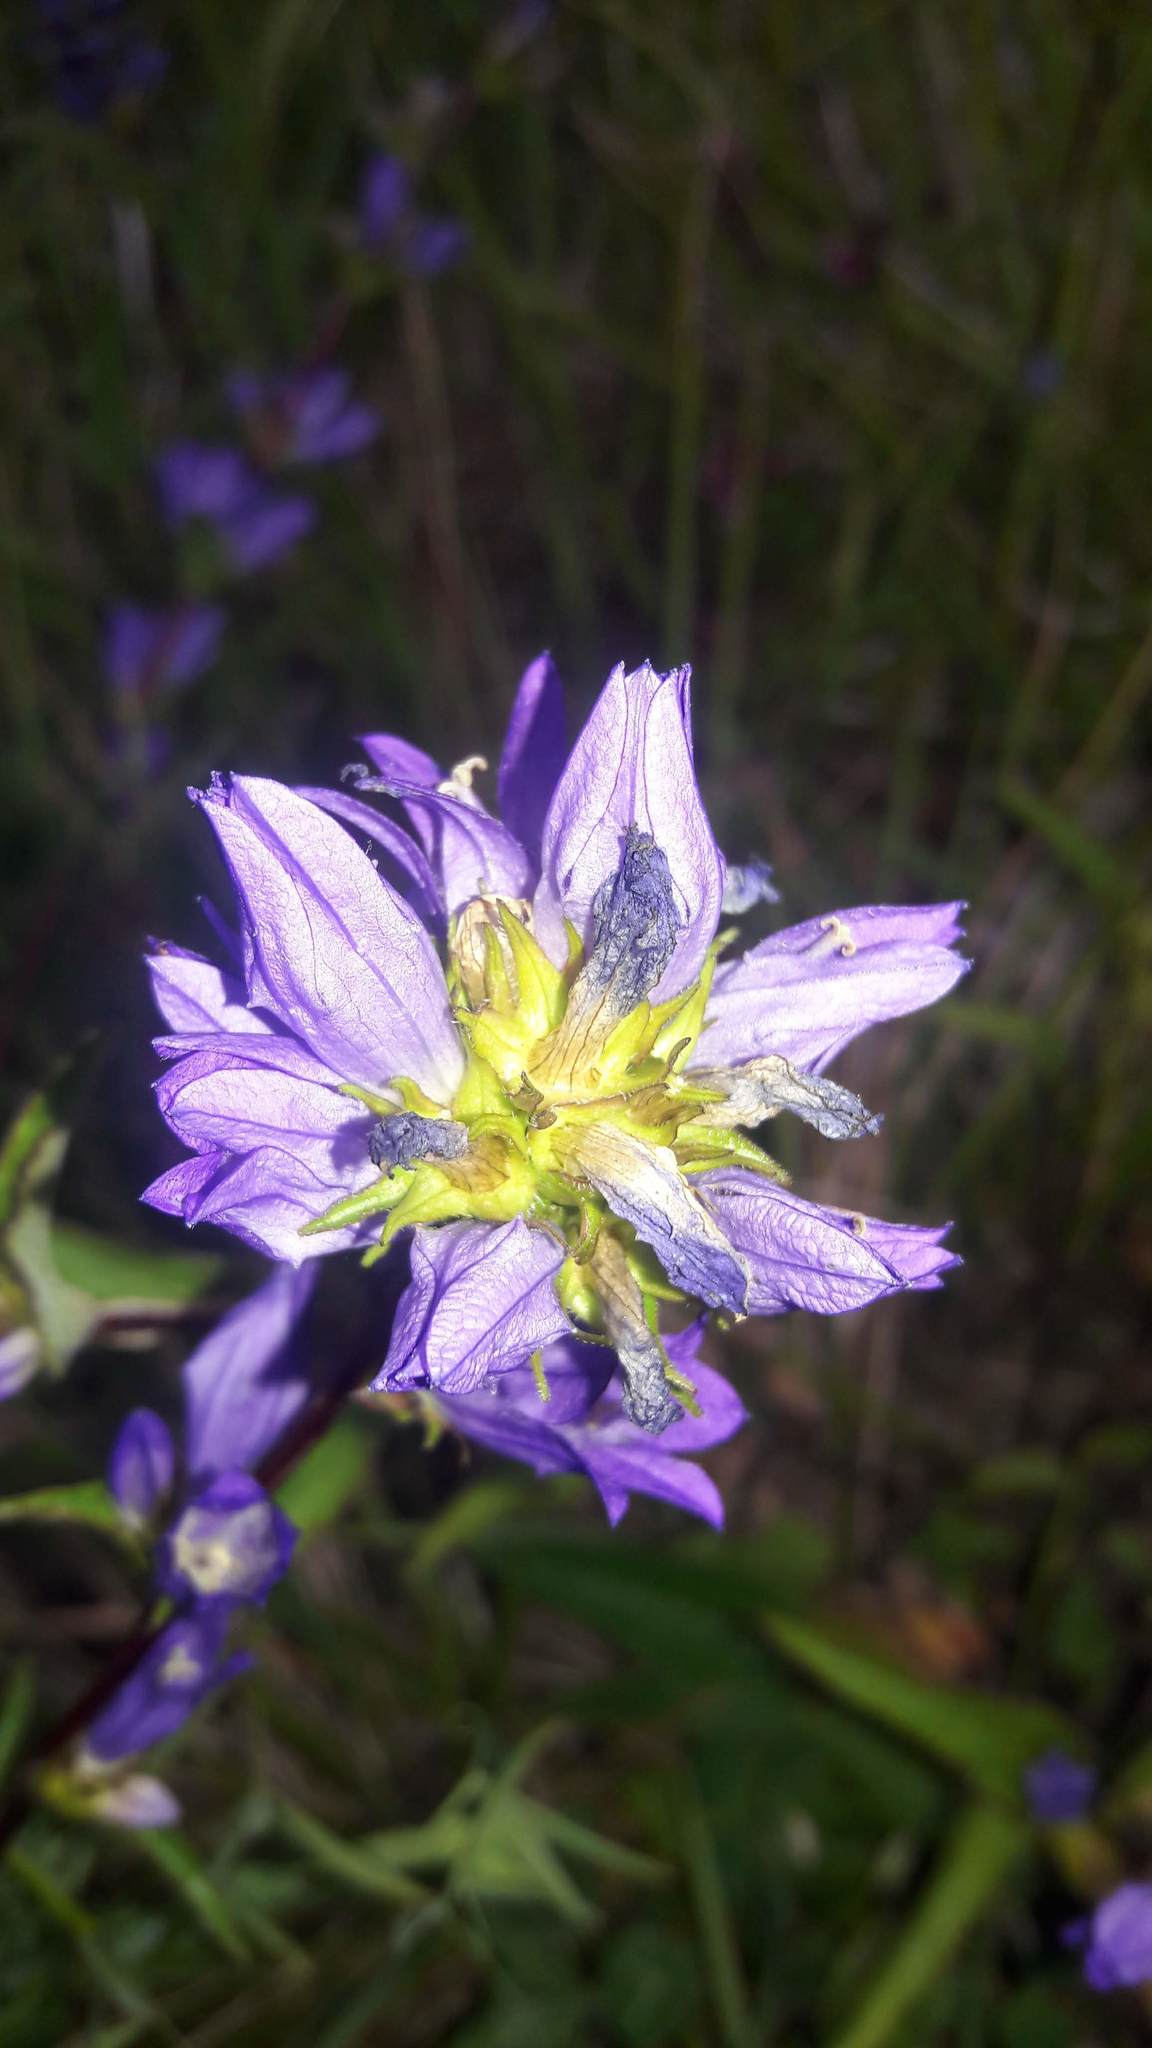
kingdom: Plantae
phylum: Tracheophyta
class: Magnoliopsida
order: Asterales
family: Campanulaceae
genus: Campanula
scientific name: Campanula glomerata
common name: Clustered bellflower
